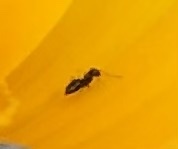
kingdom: Animalia
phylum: Arthropoda
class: Insecta
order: Hymenoptera
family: Formicidae
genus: Brachymyrmex
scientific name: Brachymyrmex patagonicus
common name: Dark rover ant
